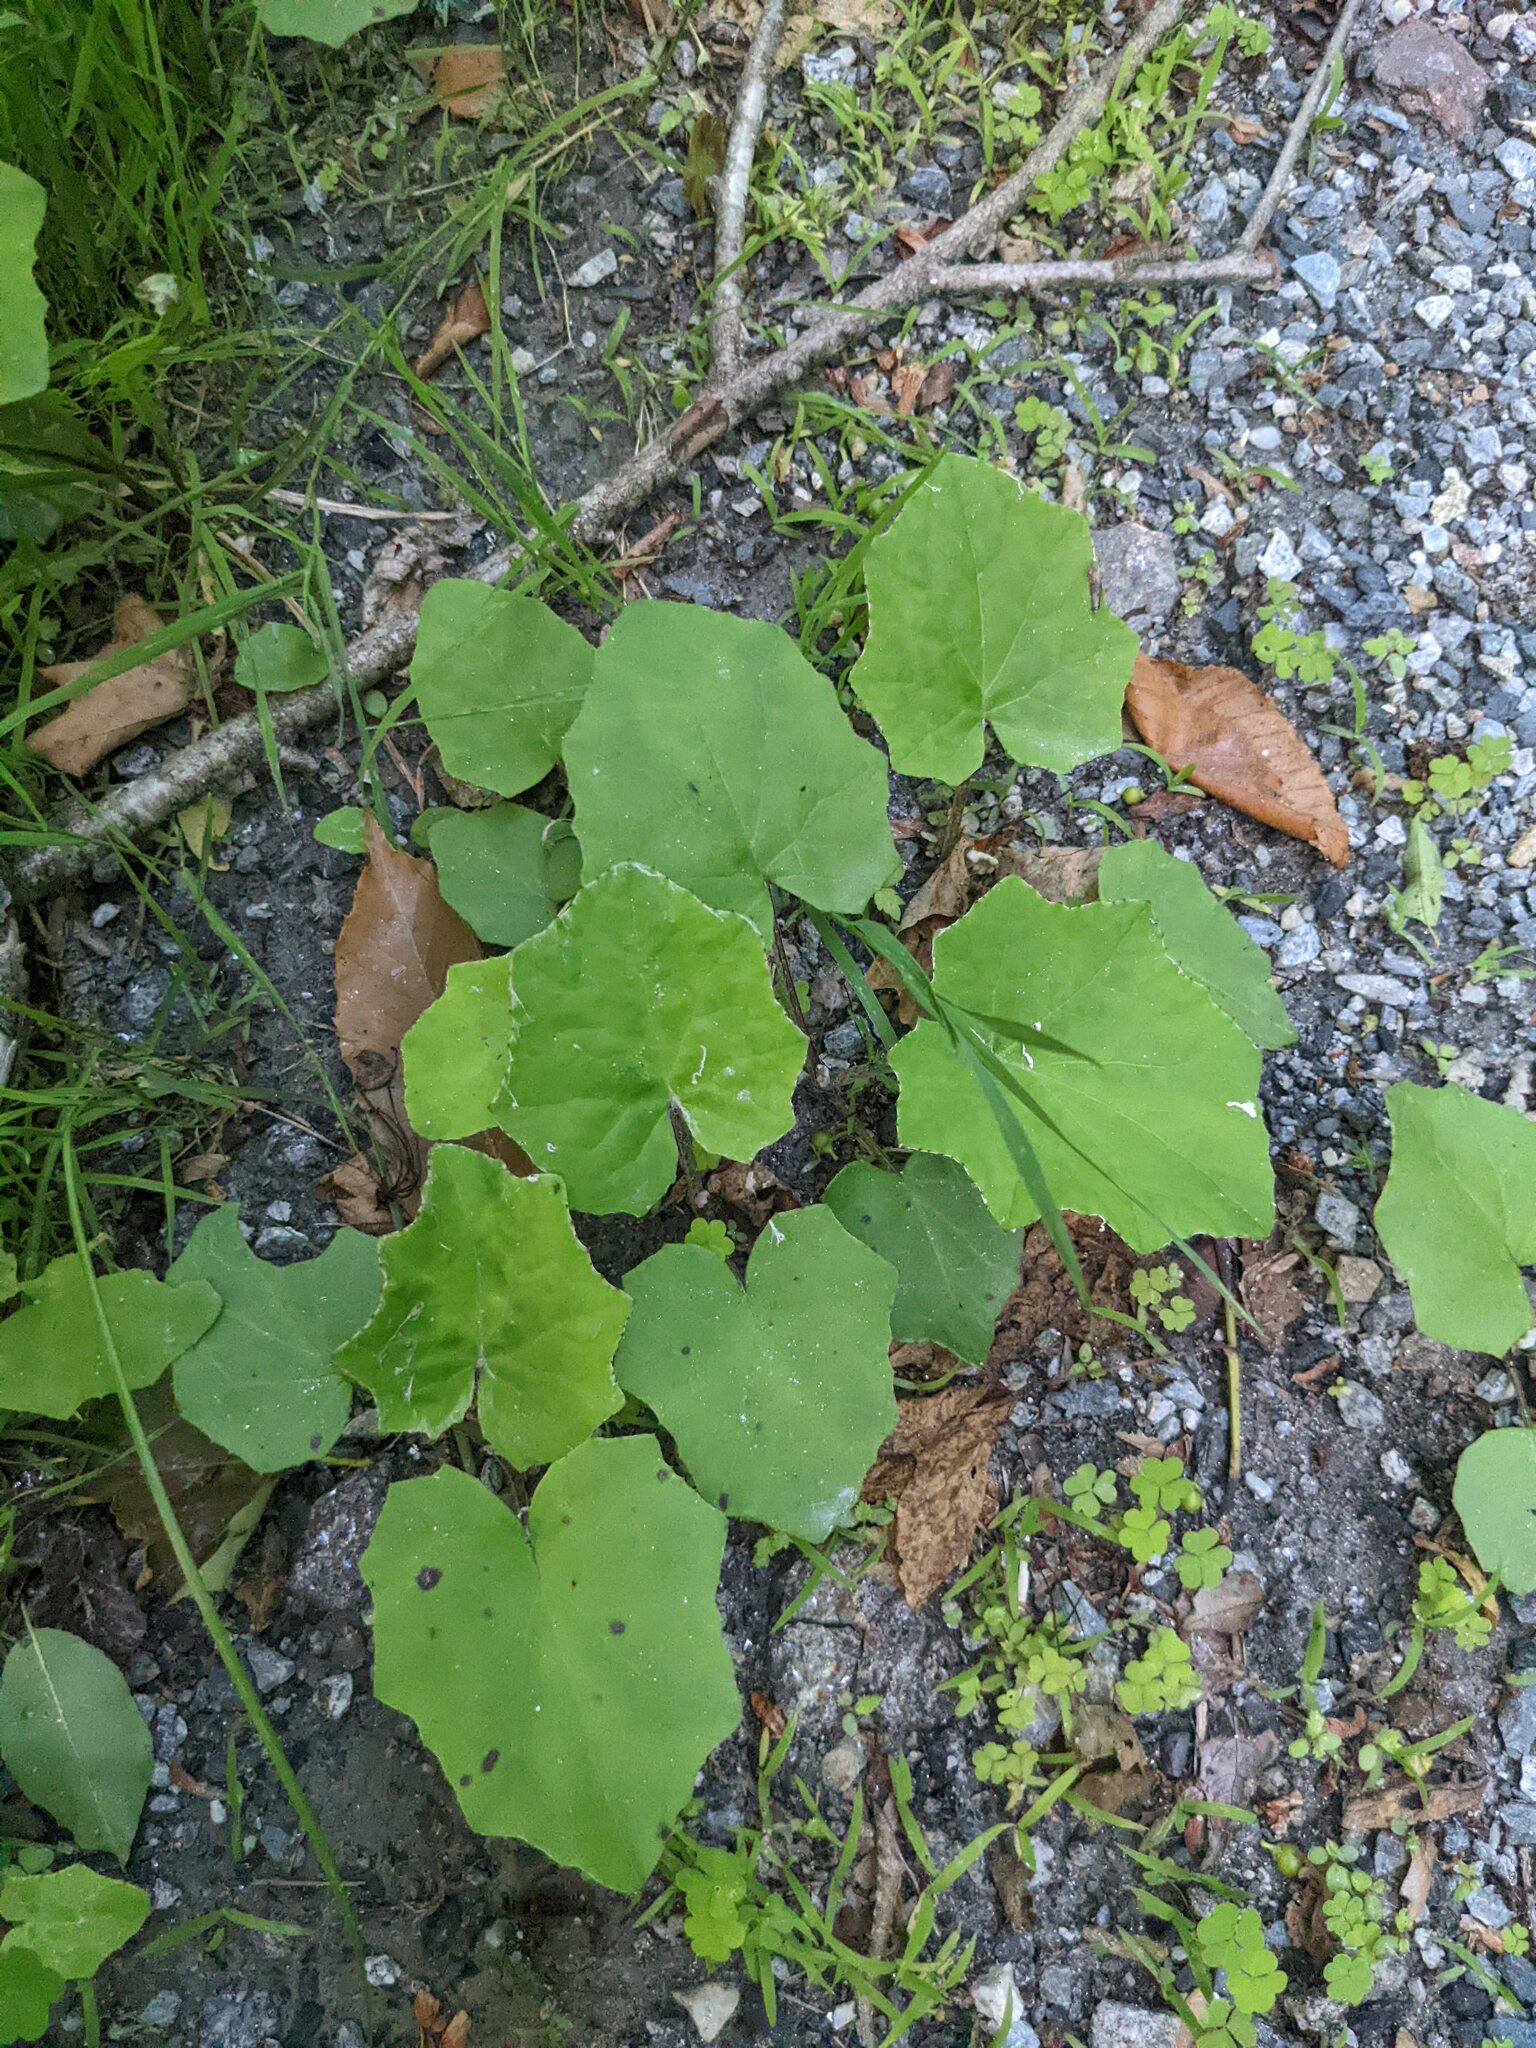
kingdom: Plantae
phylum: Tracheophyta
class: Magnoliopsida
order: Asterales
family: Asteraceae
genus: Tussilago
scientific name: Tussilago farfara
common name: Coltsfoot
